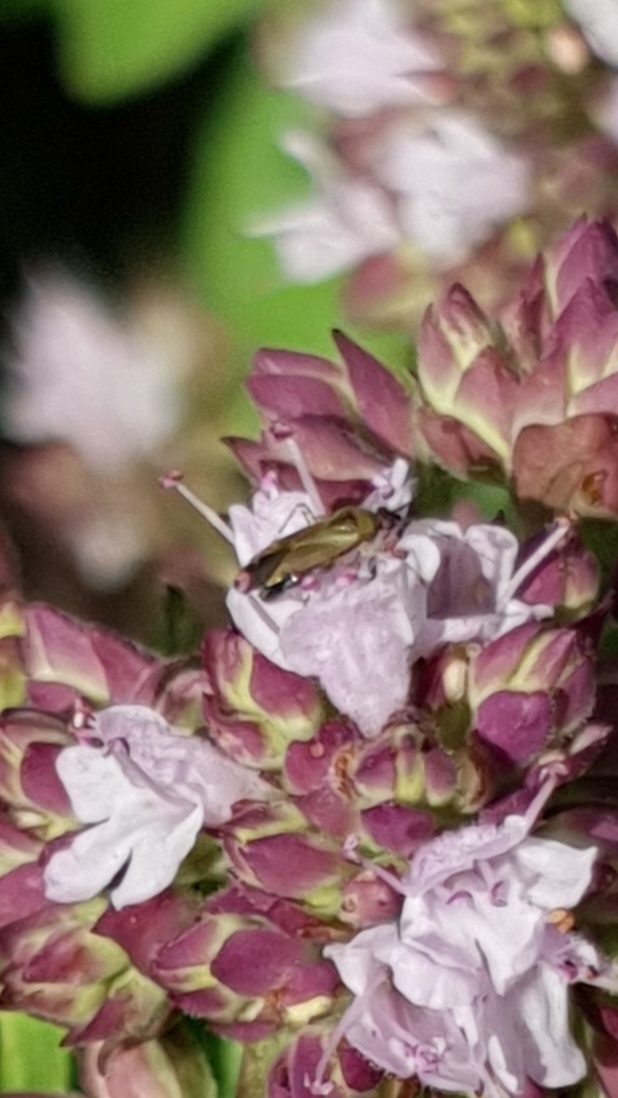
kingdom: Animalia
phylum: Arthropoda
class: Insecta
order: Hemiptera
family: Miridae
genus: Plagiognathus
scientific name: Plagiognathus arbustorum
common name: Plant bug
